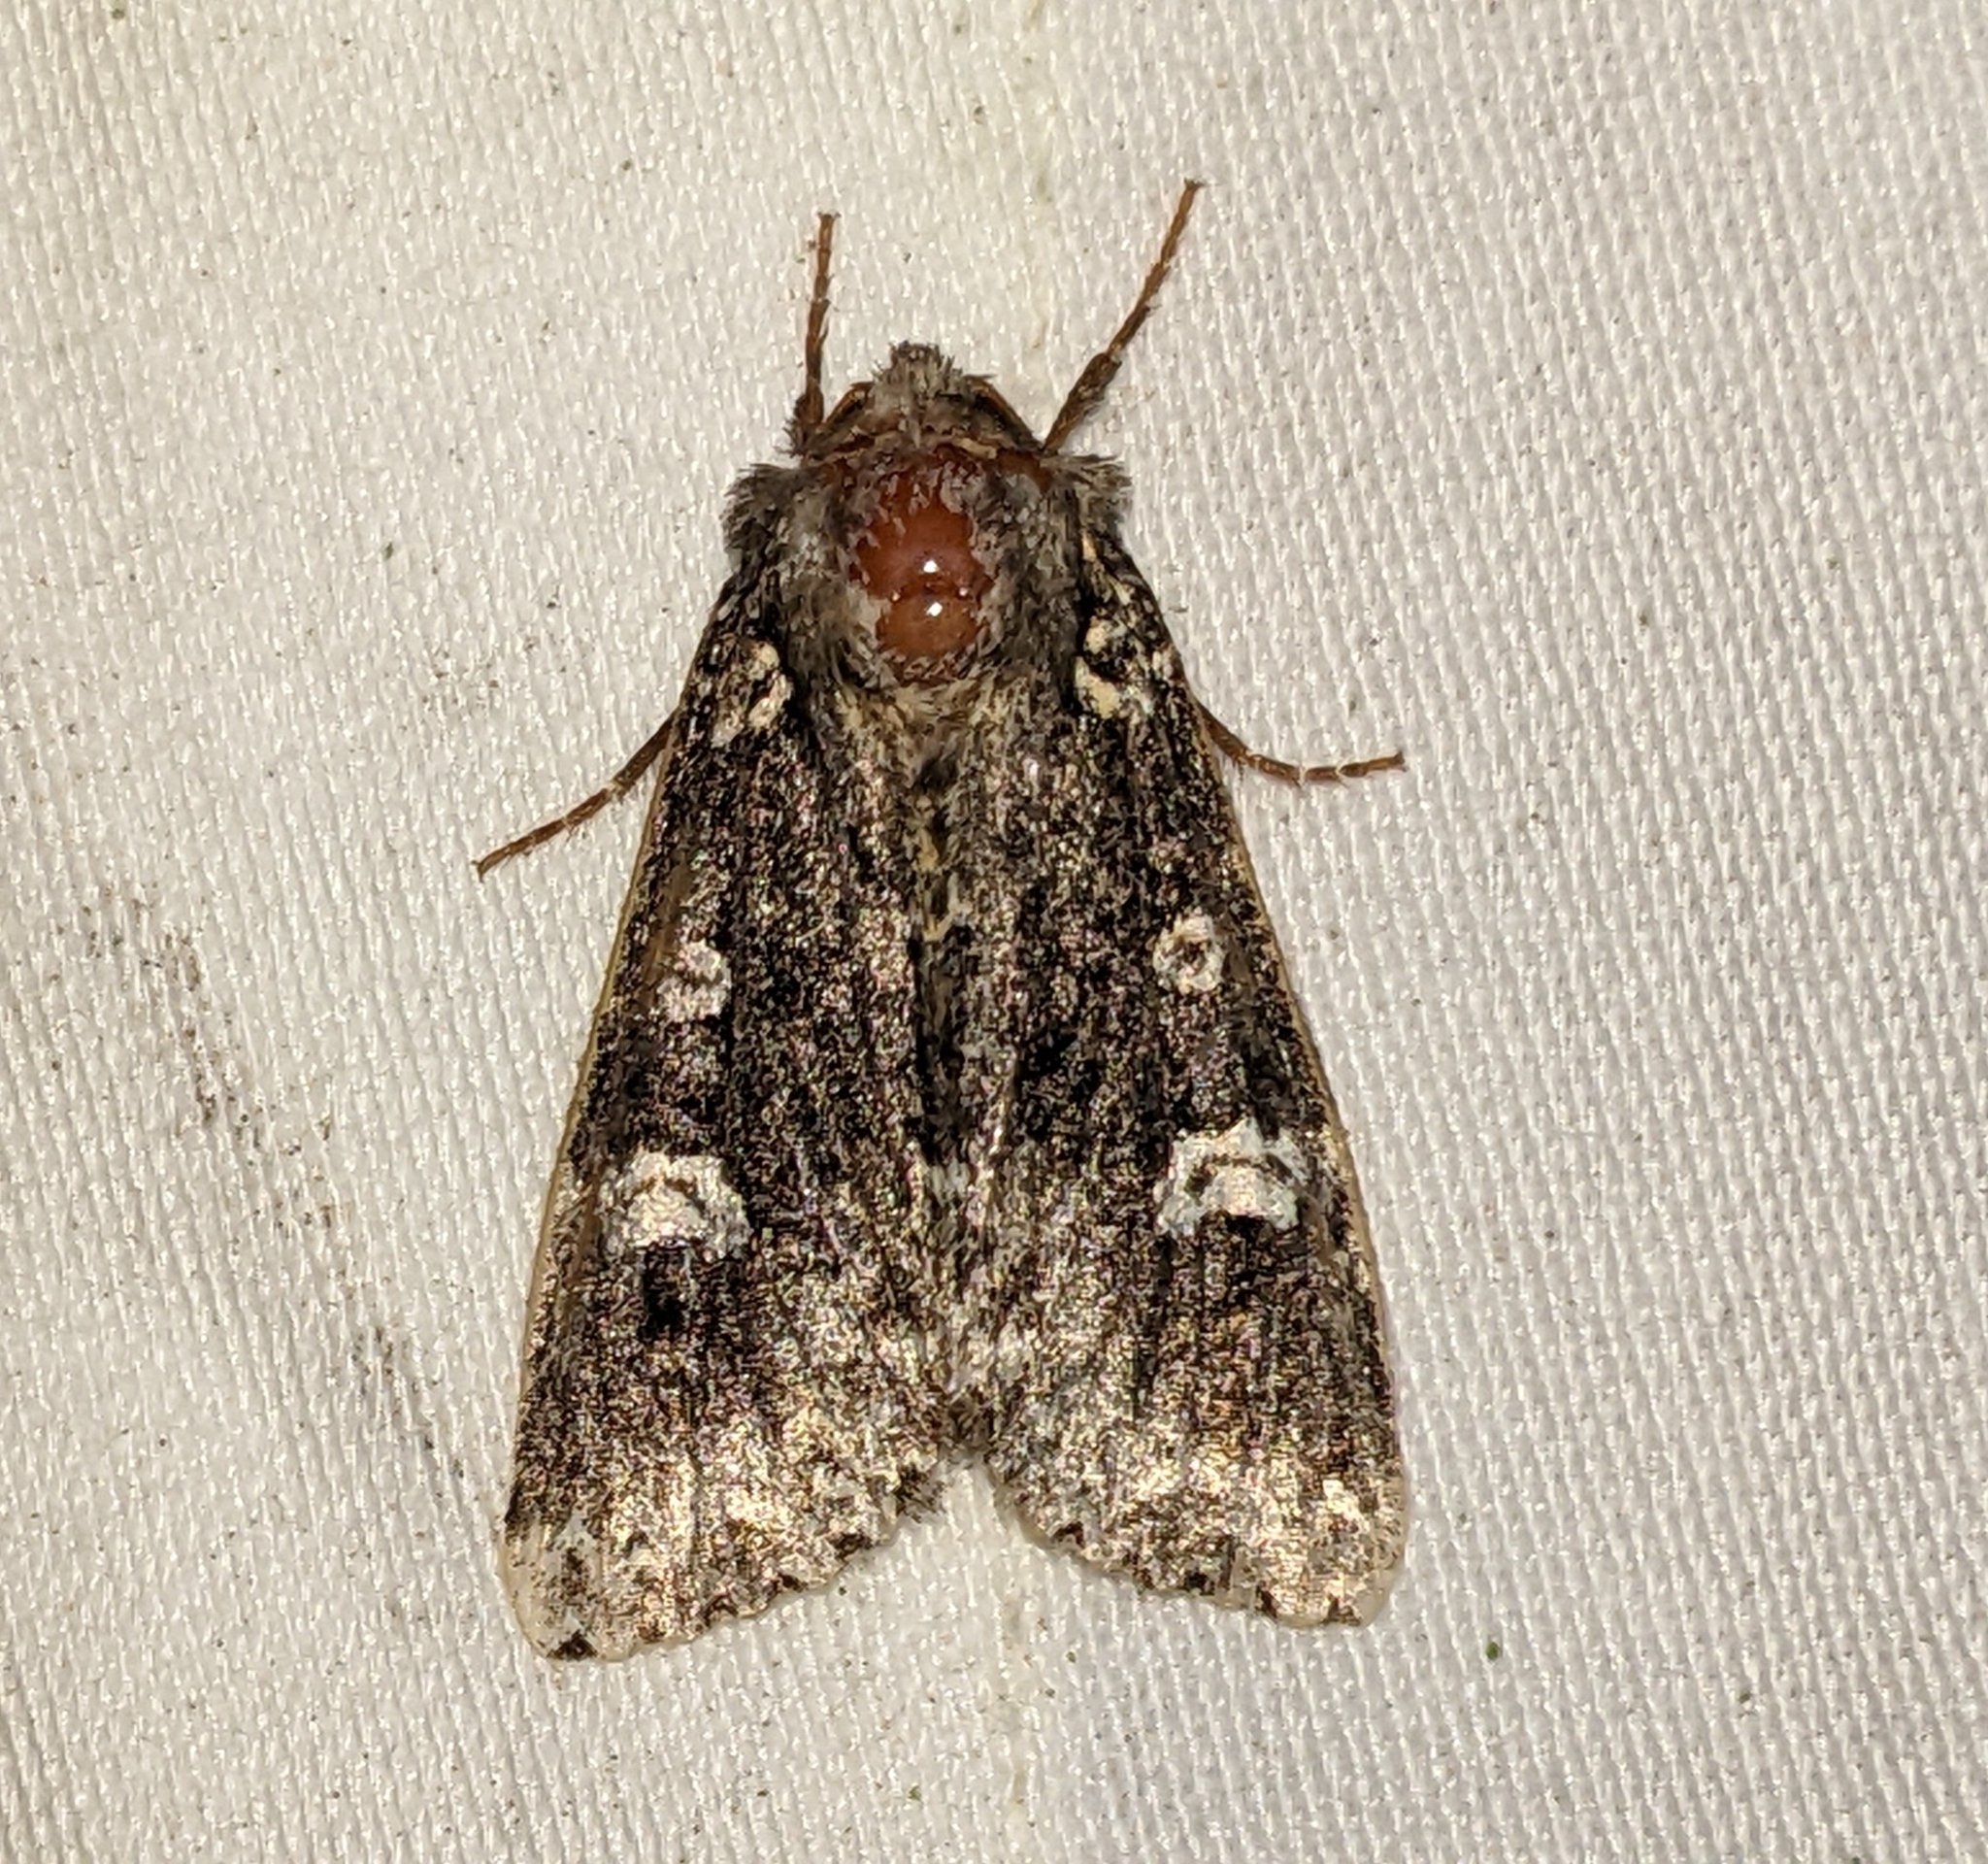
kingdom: Animalia
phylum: Arthropoda
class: Insecta
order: Lepidoptera
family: Noctuidae
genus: Melanchra
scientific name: Melanchra adjuncta
